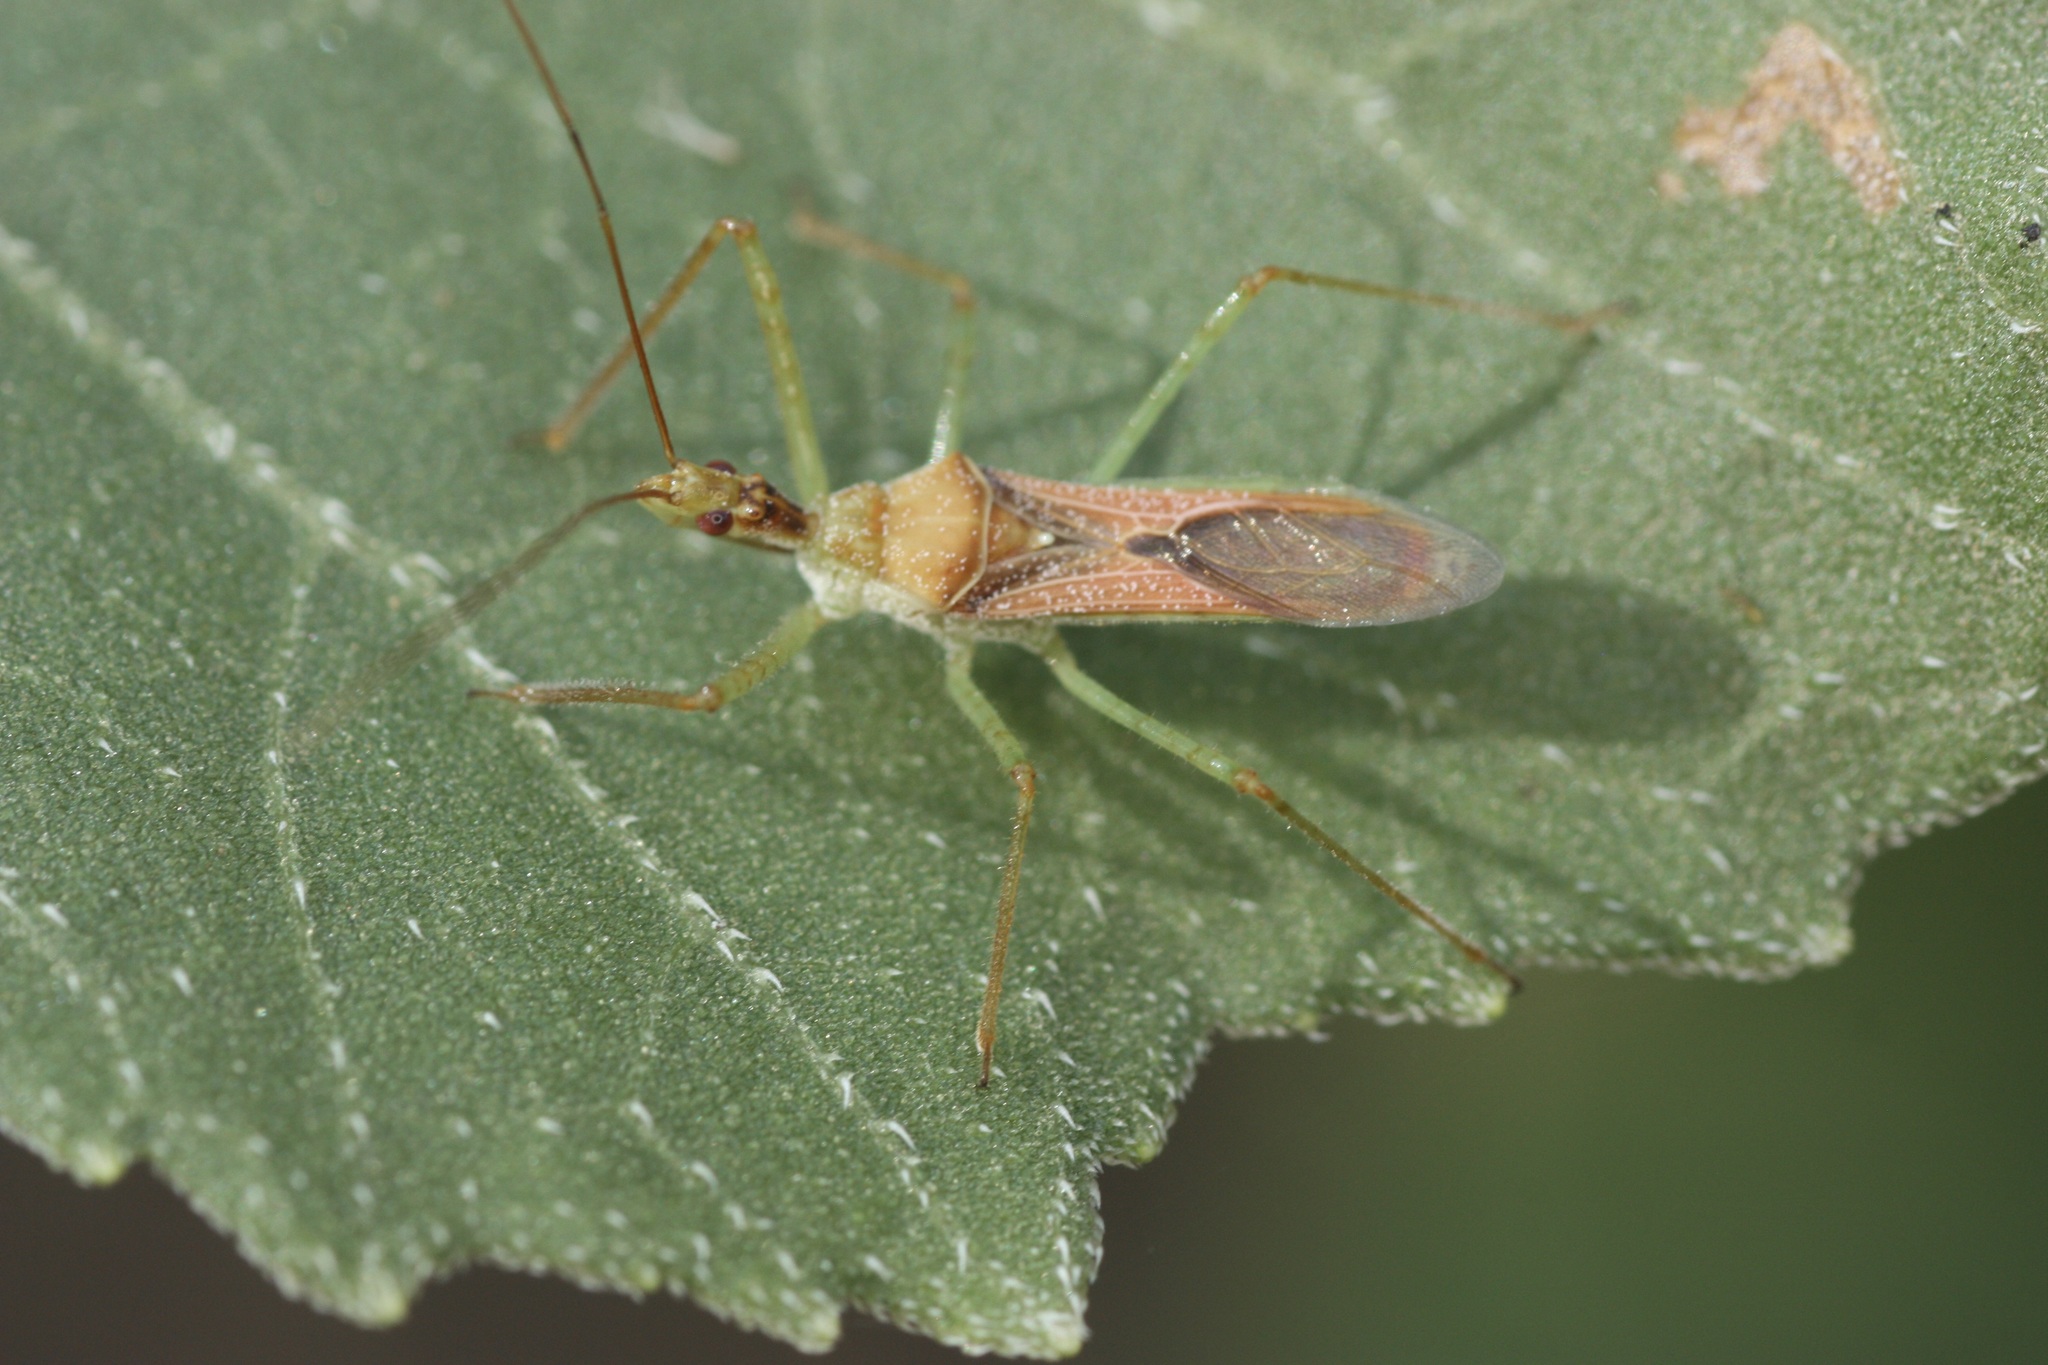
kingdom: Animalia
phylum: Arthropoda
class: Insecta
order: Hemiptera
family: Reduviidae
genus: Zelus
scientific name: Zelus renardii
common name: Assassin bug
